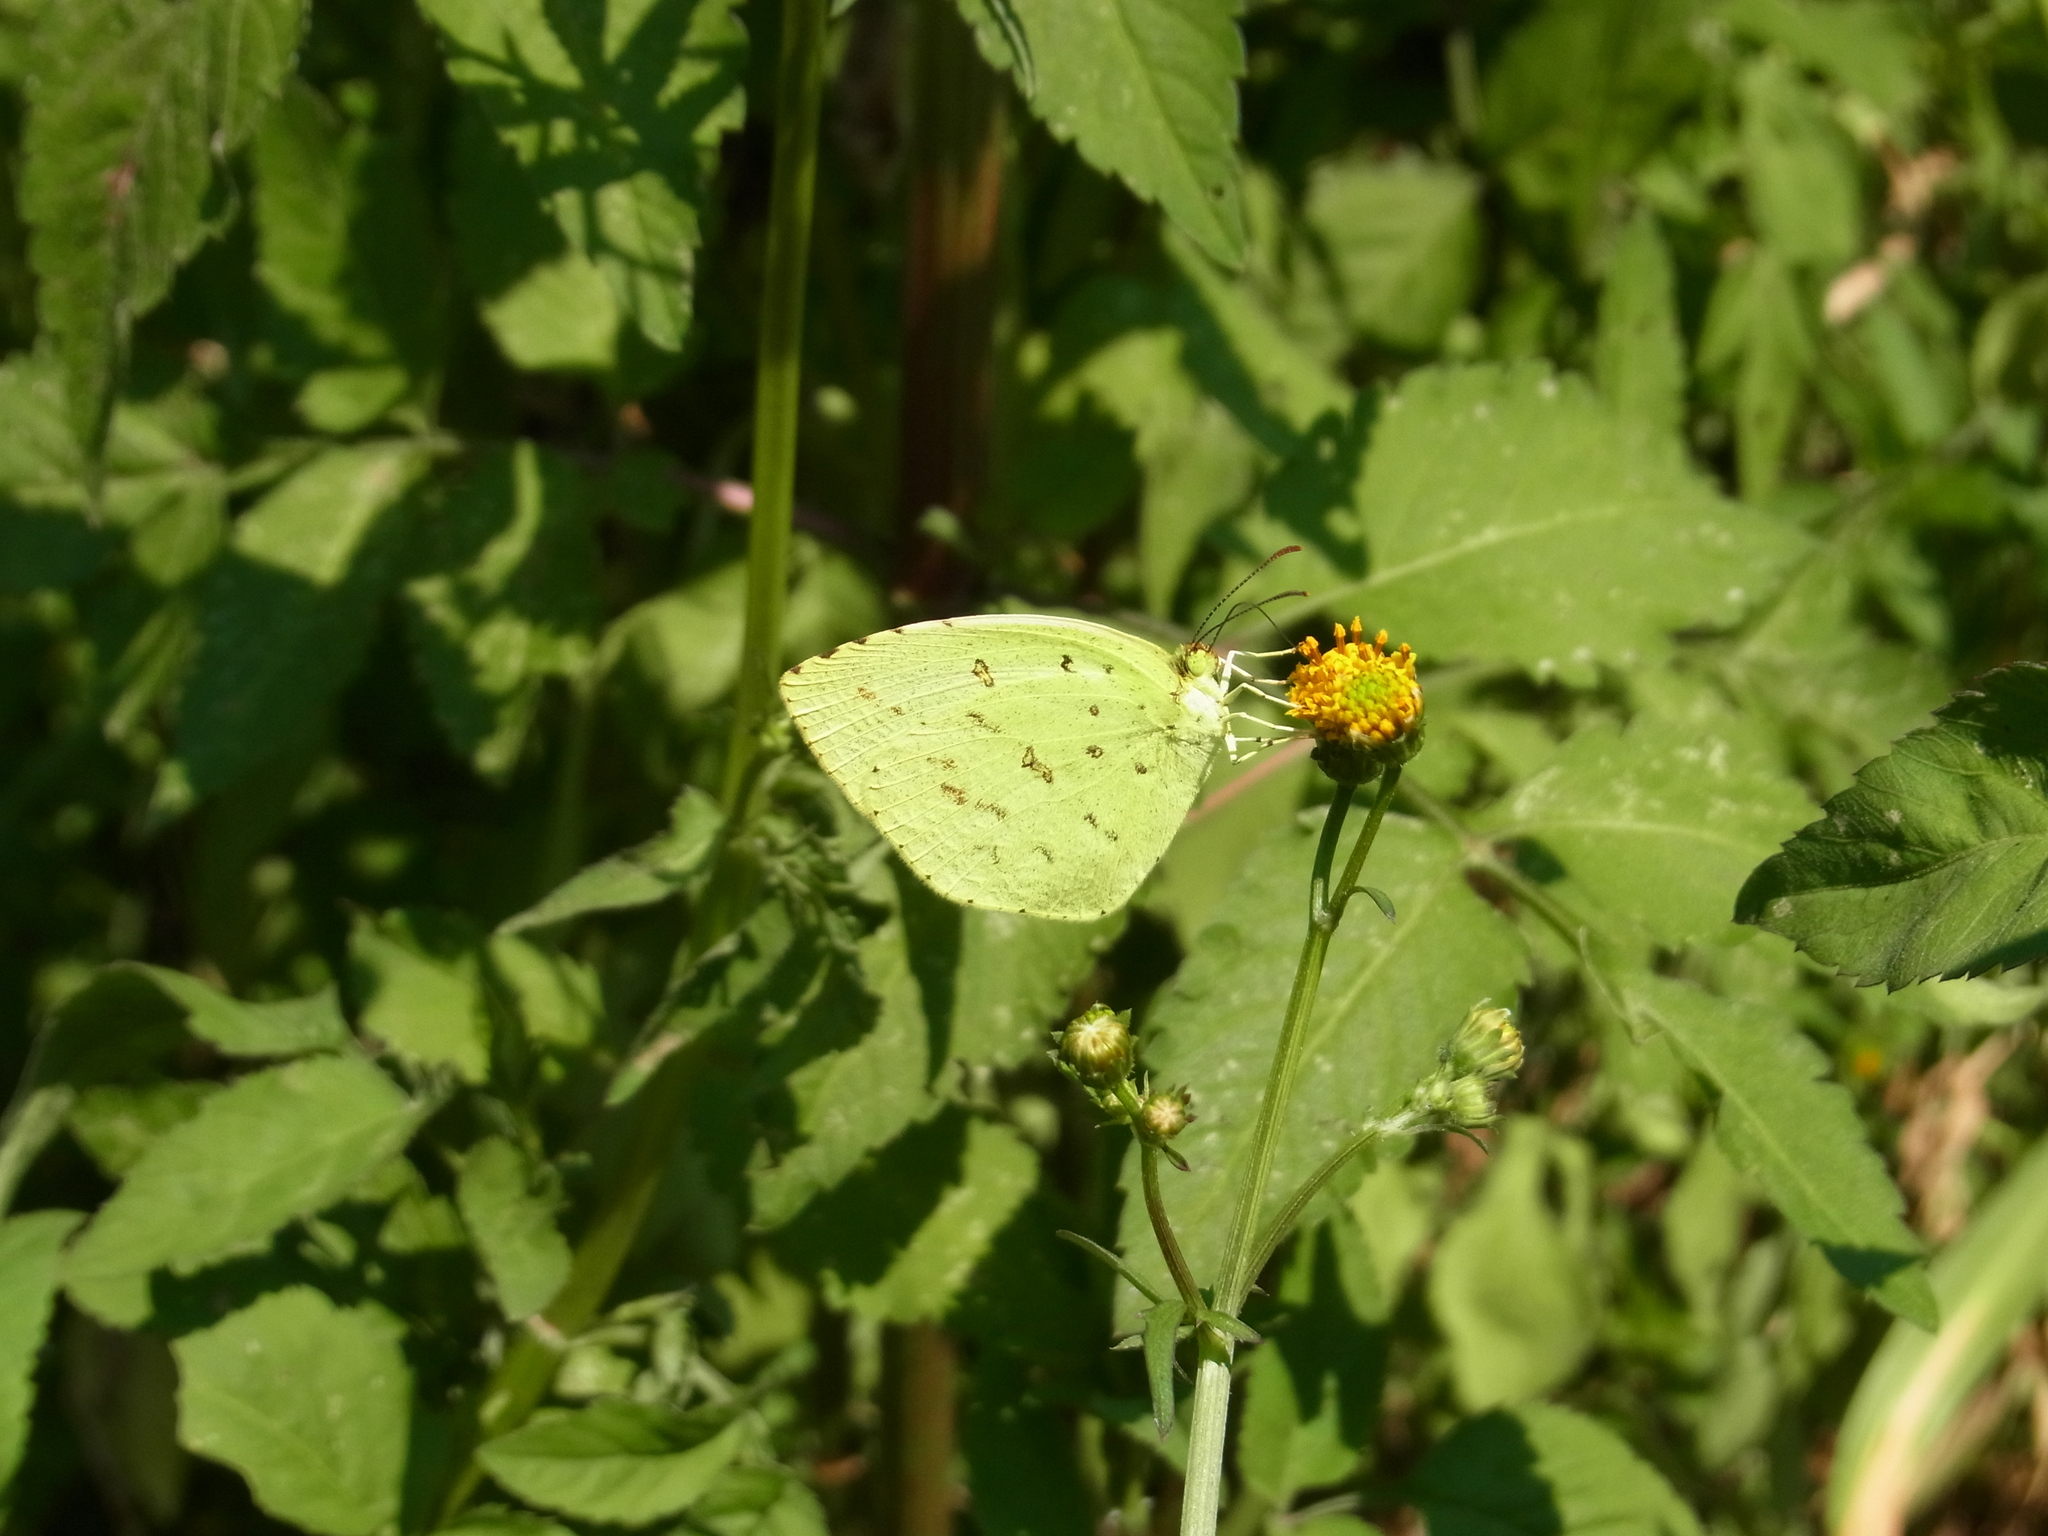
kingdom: Animalia
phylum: Arthropoda
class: Insecta
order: Lepidoptera
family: Pieridae
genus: Eurema
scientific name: Eurema mandarina
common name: Japanese common grass yellow
